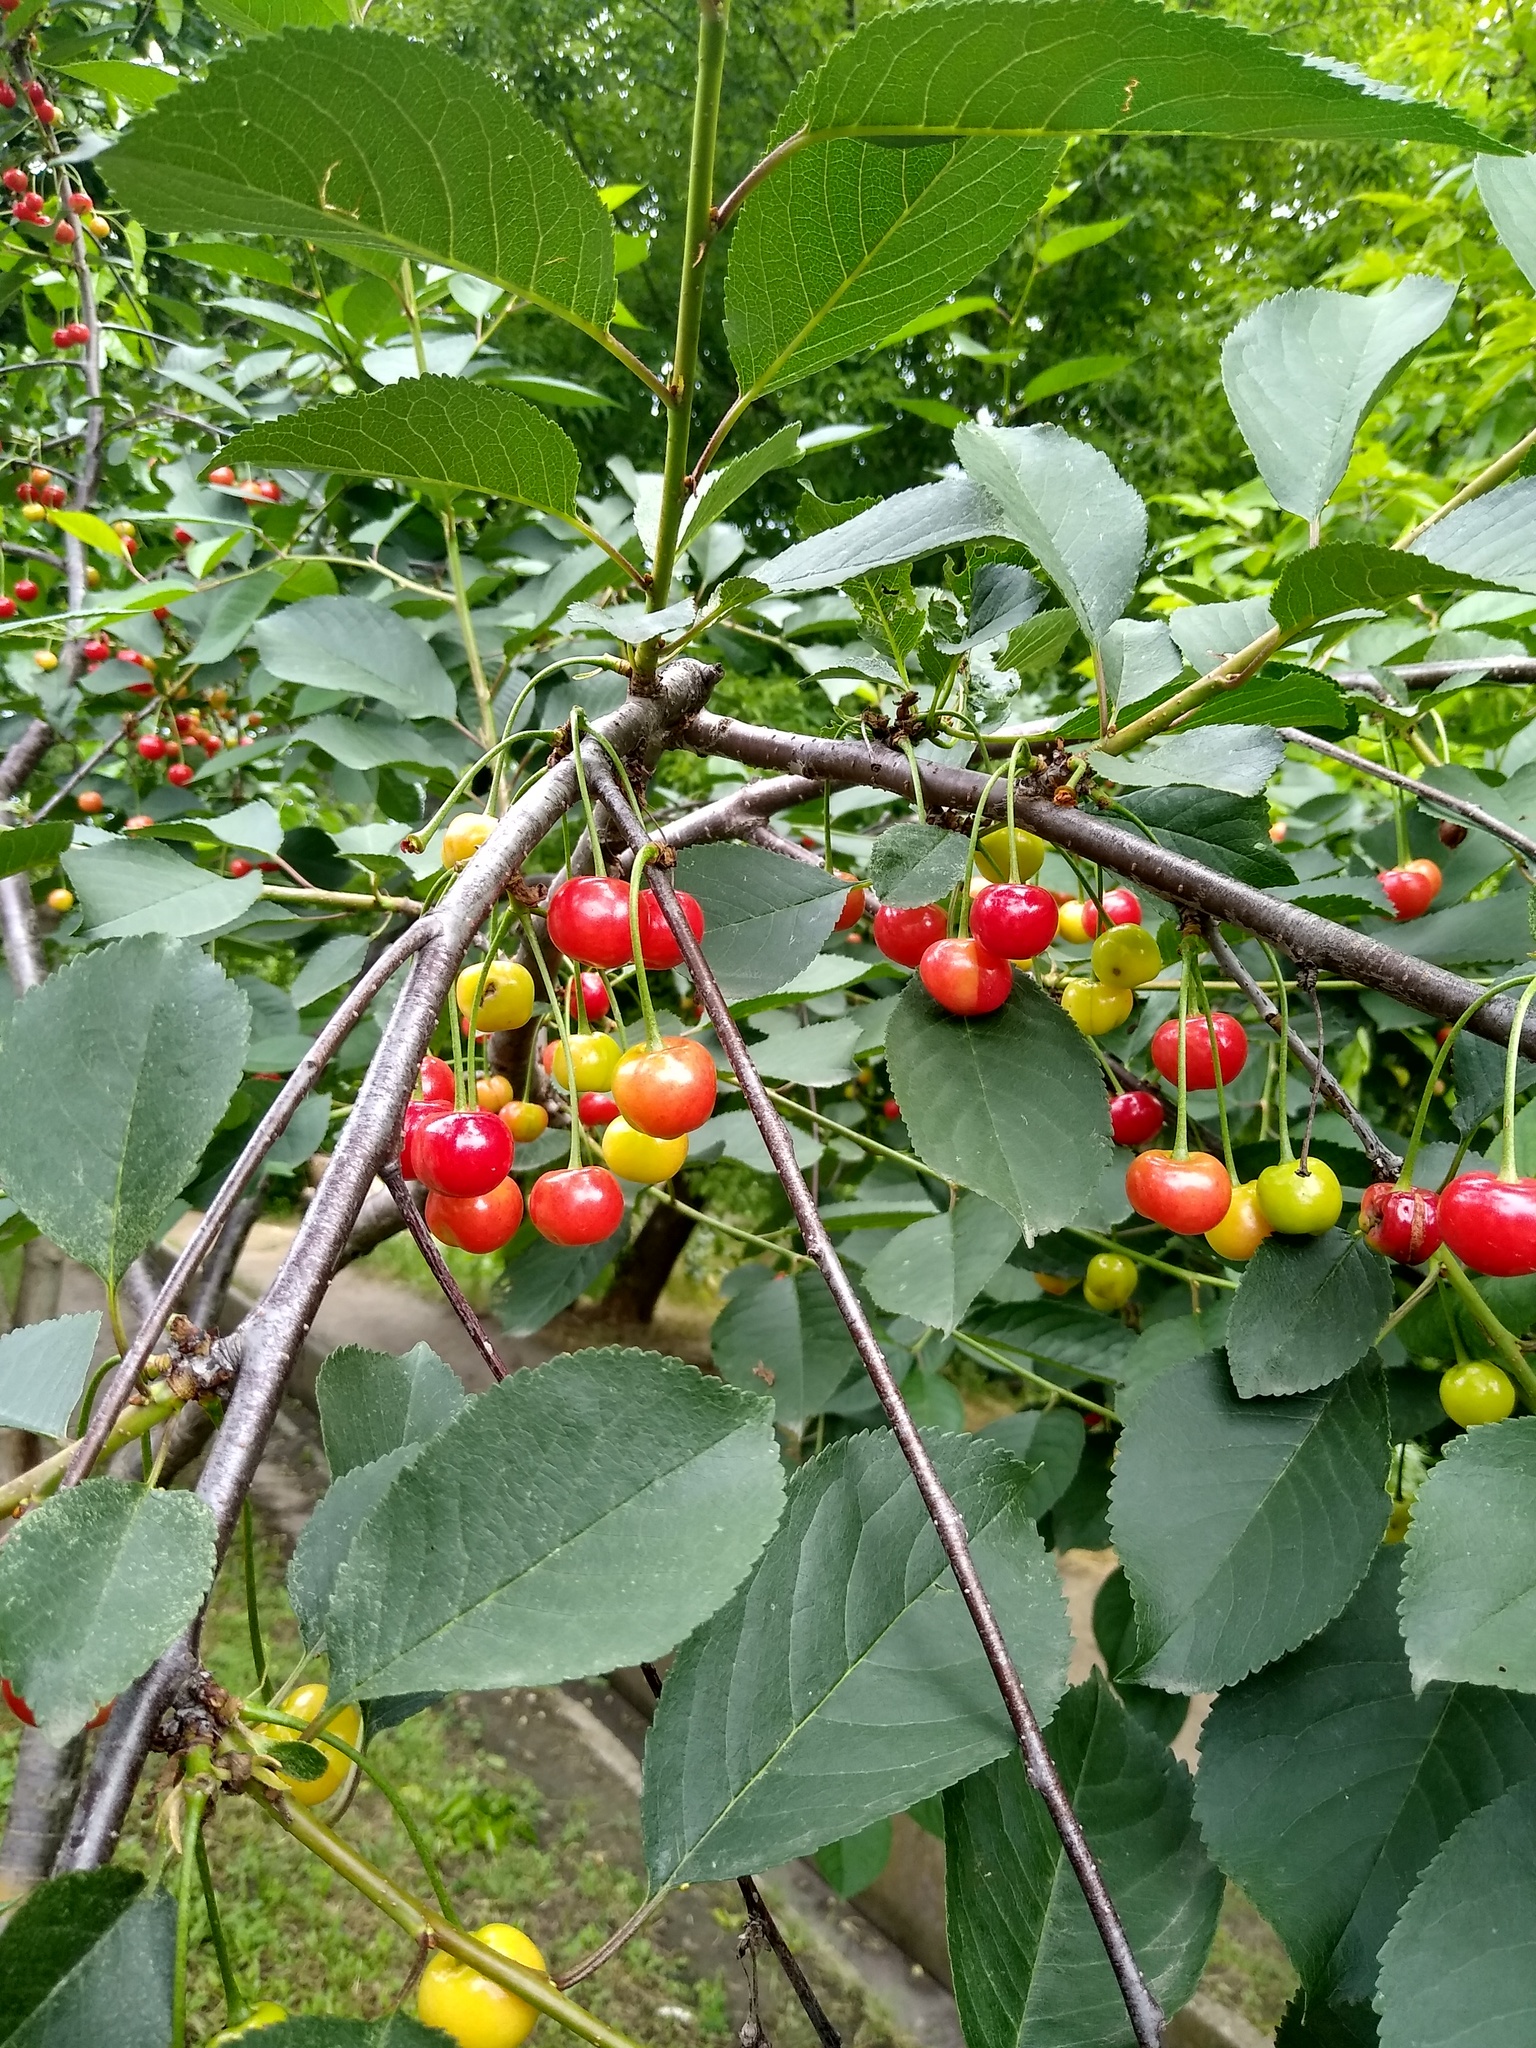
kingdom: Plantae
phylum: Tracheophyta
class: Magnoliopsida
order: Rosales
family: Rosaceae
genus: Prunus
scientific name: Prunus cerasus
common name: Morello cherry
